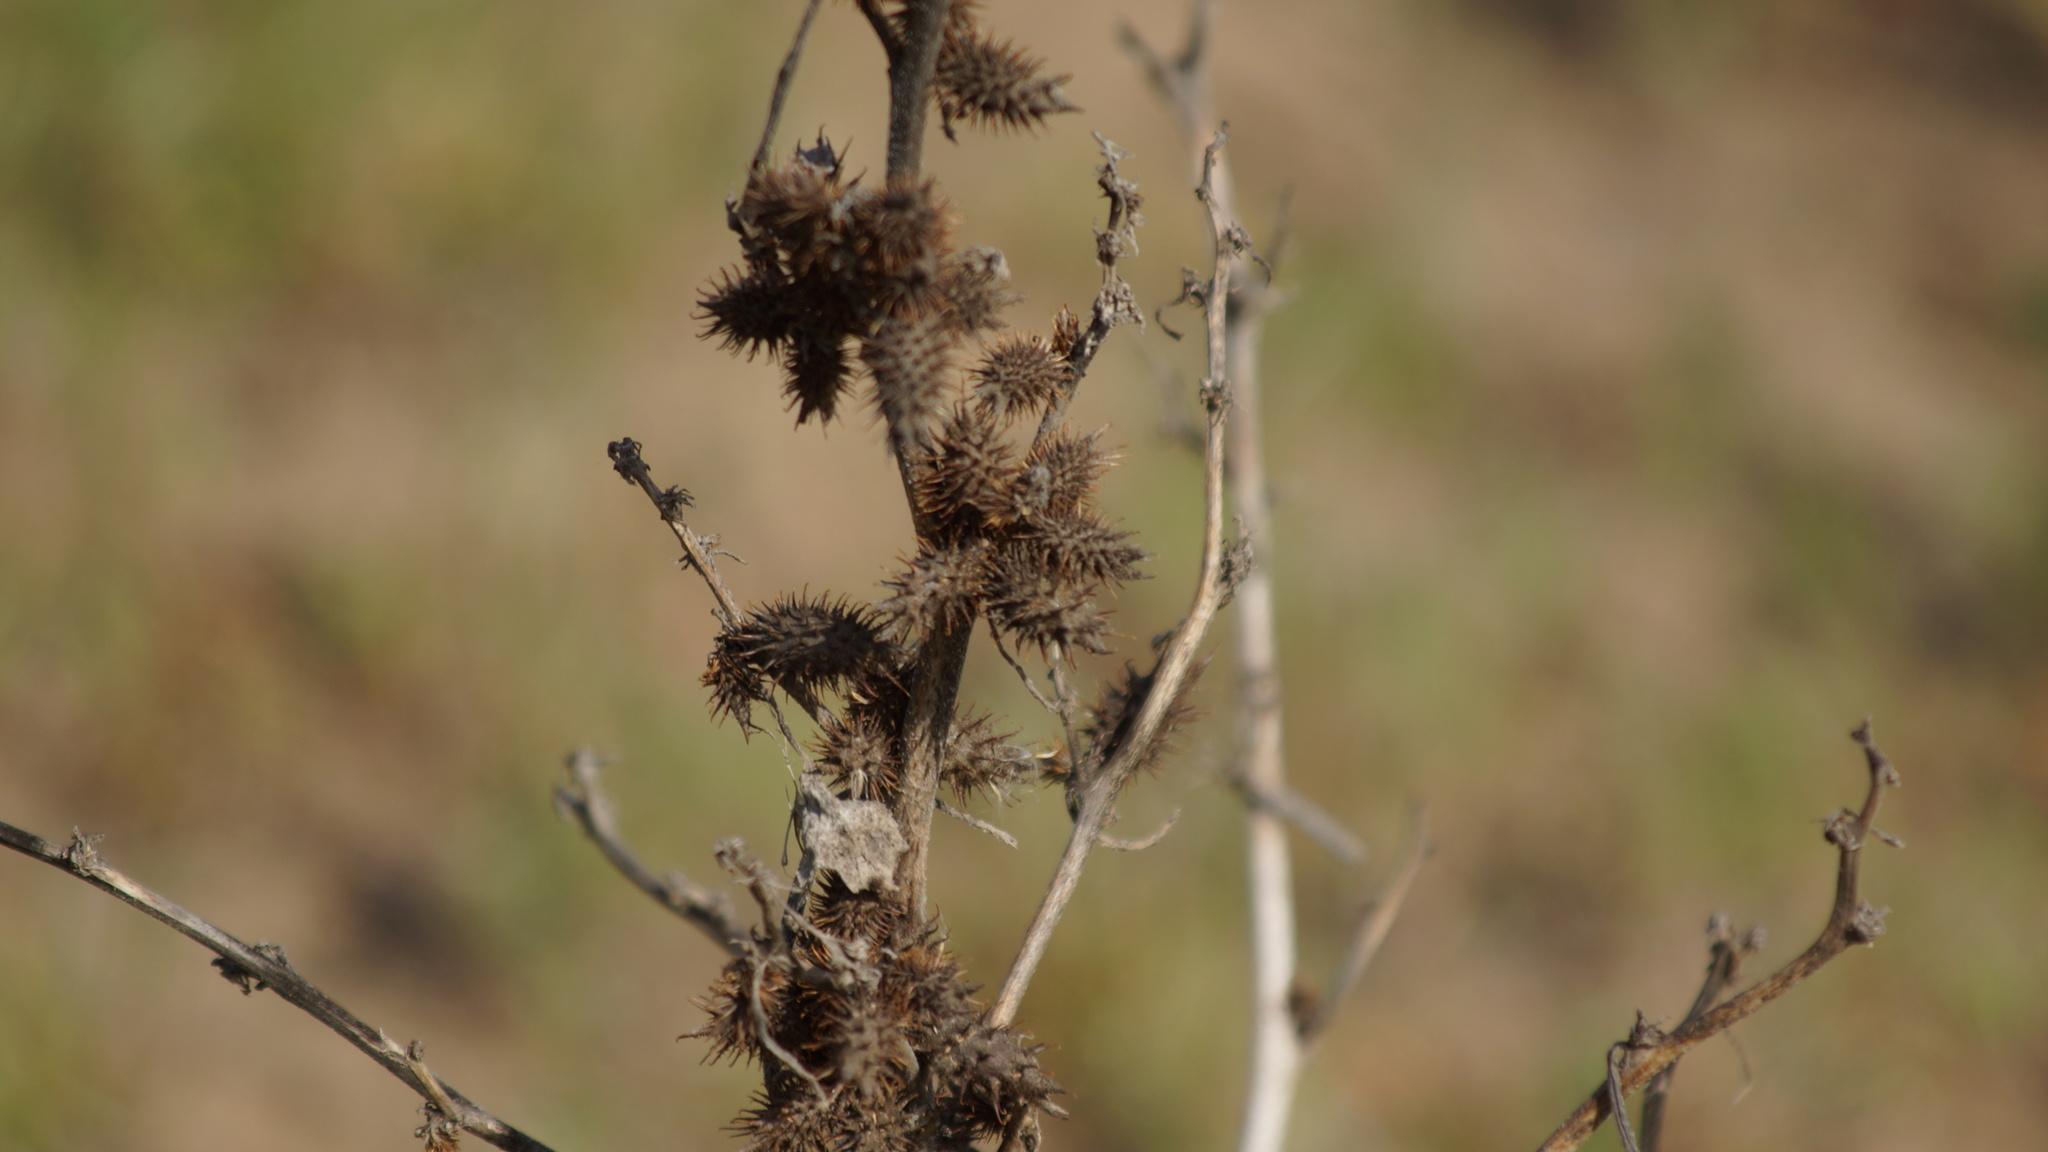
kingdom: Plantae
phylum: Tracheophyta
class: Magnoliopsida
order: Asterales
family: Asteraceae
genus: Xanthium
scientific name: Xanthium orientale
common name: Californian burr
